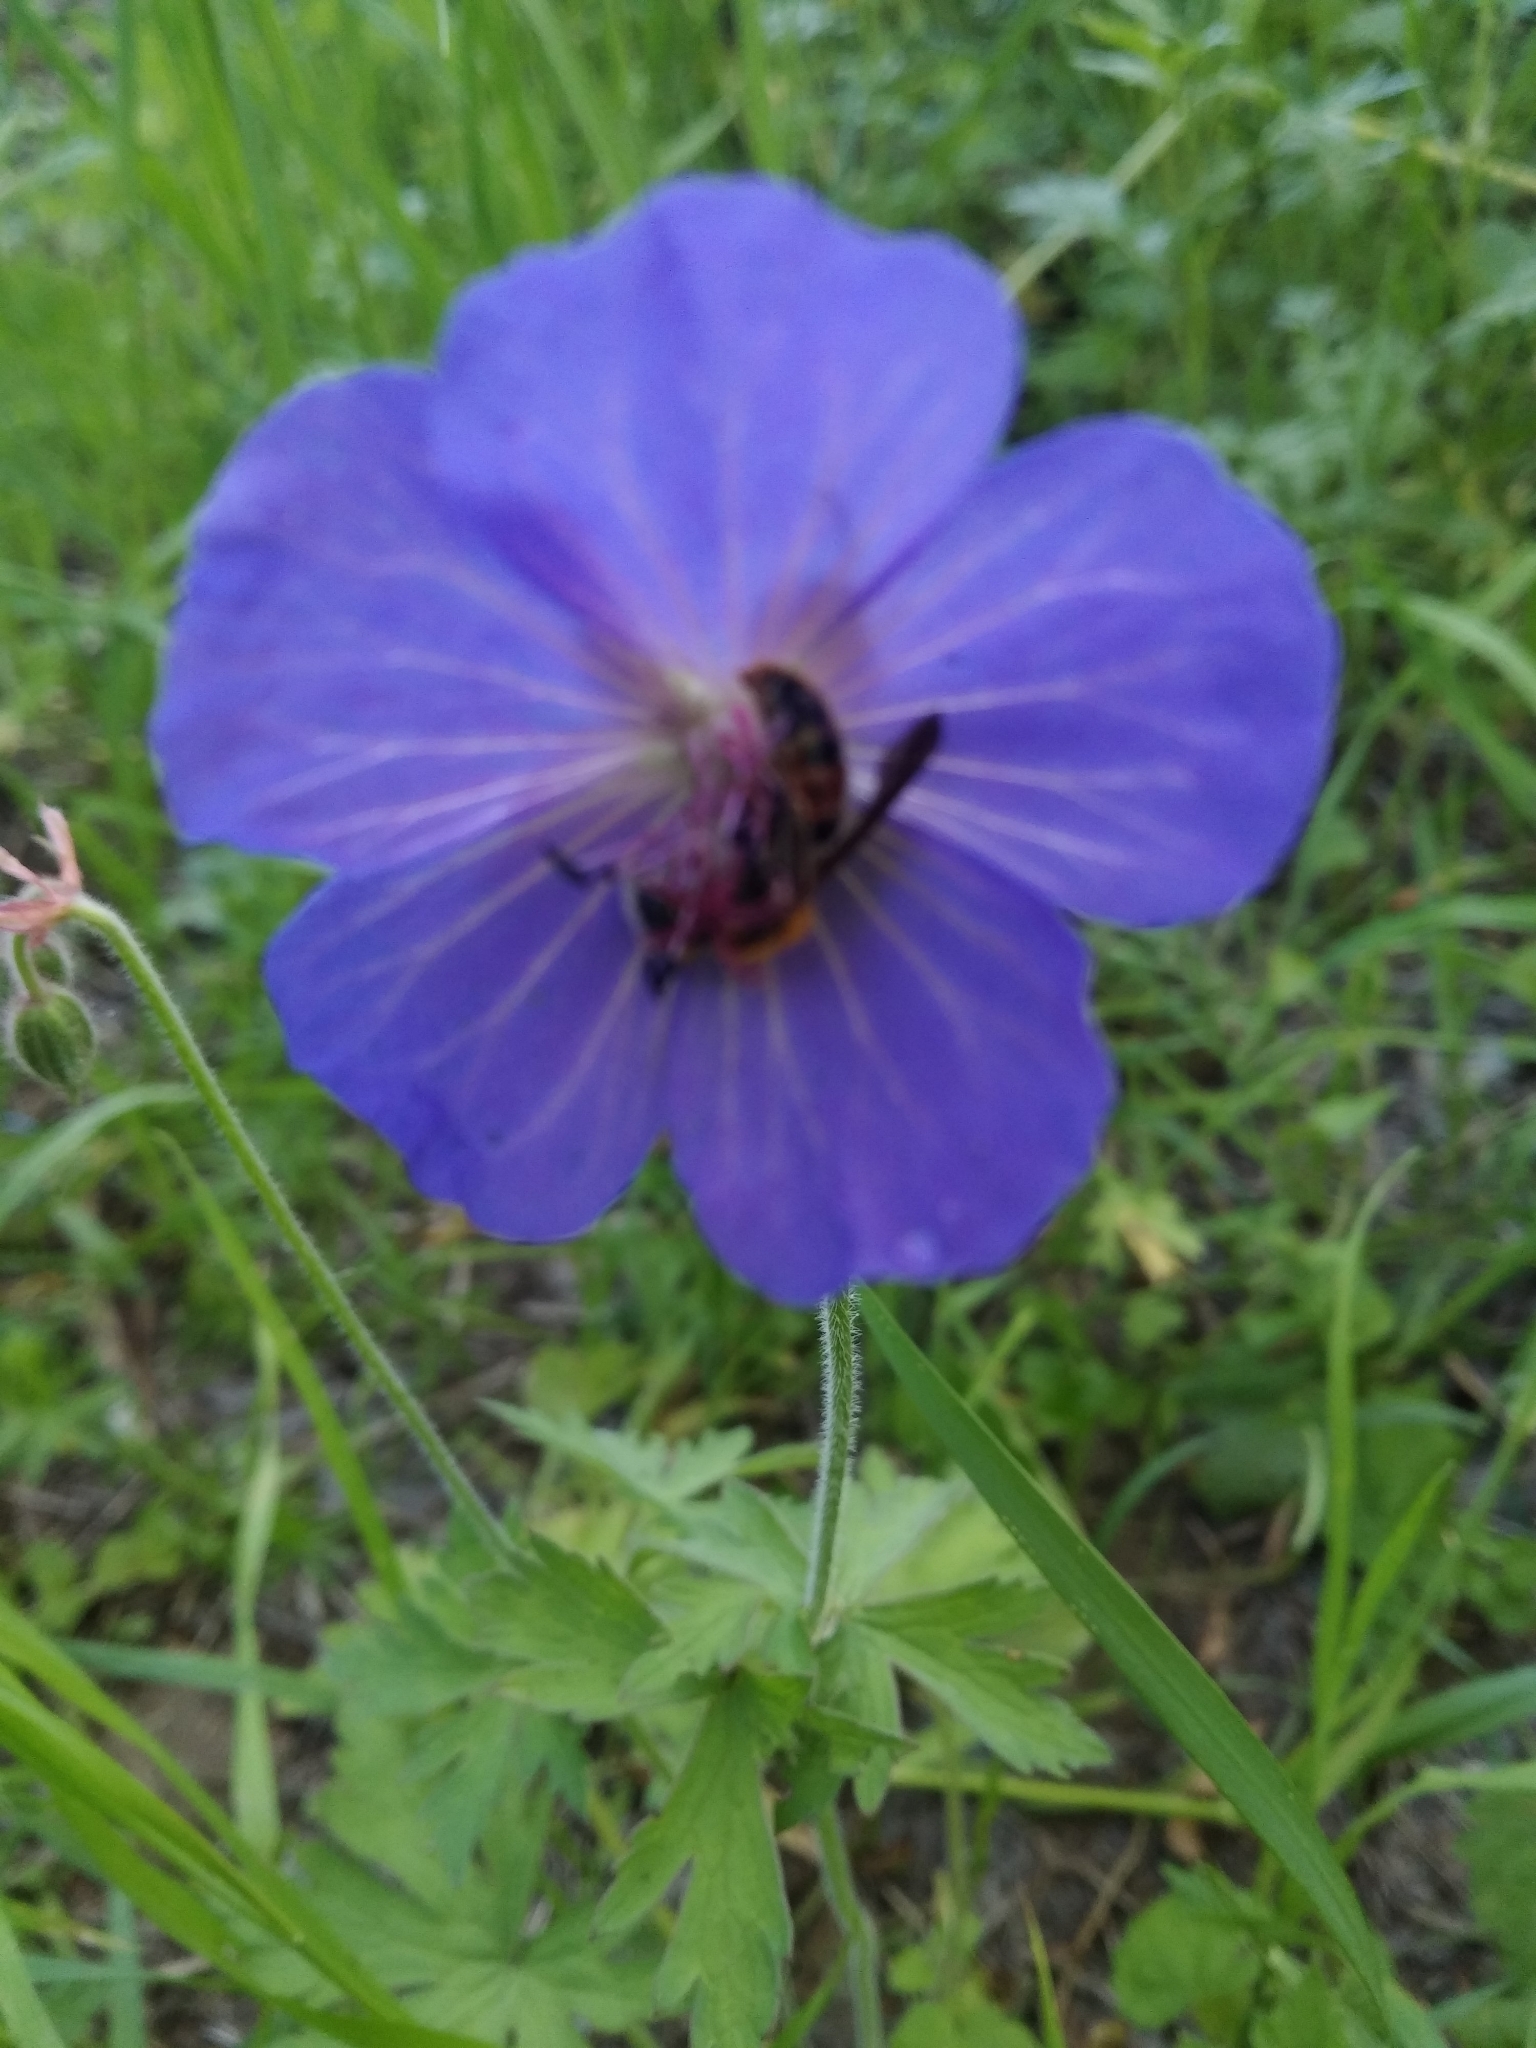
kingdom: Plantae
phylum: Tracheophyta
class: Magnoliopsida
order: Geraniales
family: Geraniaceae
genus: Geranium
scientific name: Geranium pratense
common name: Meadow crane's-bill
